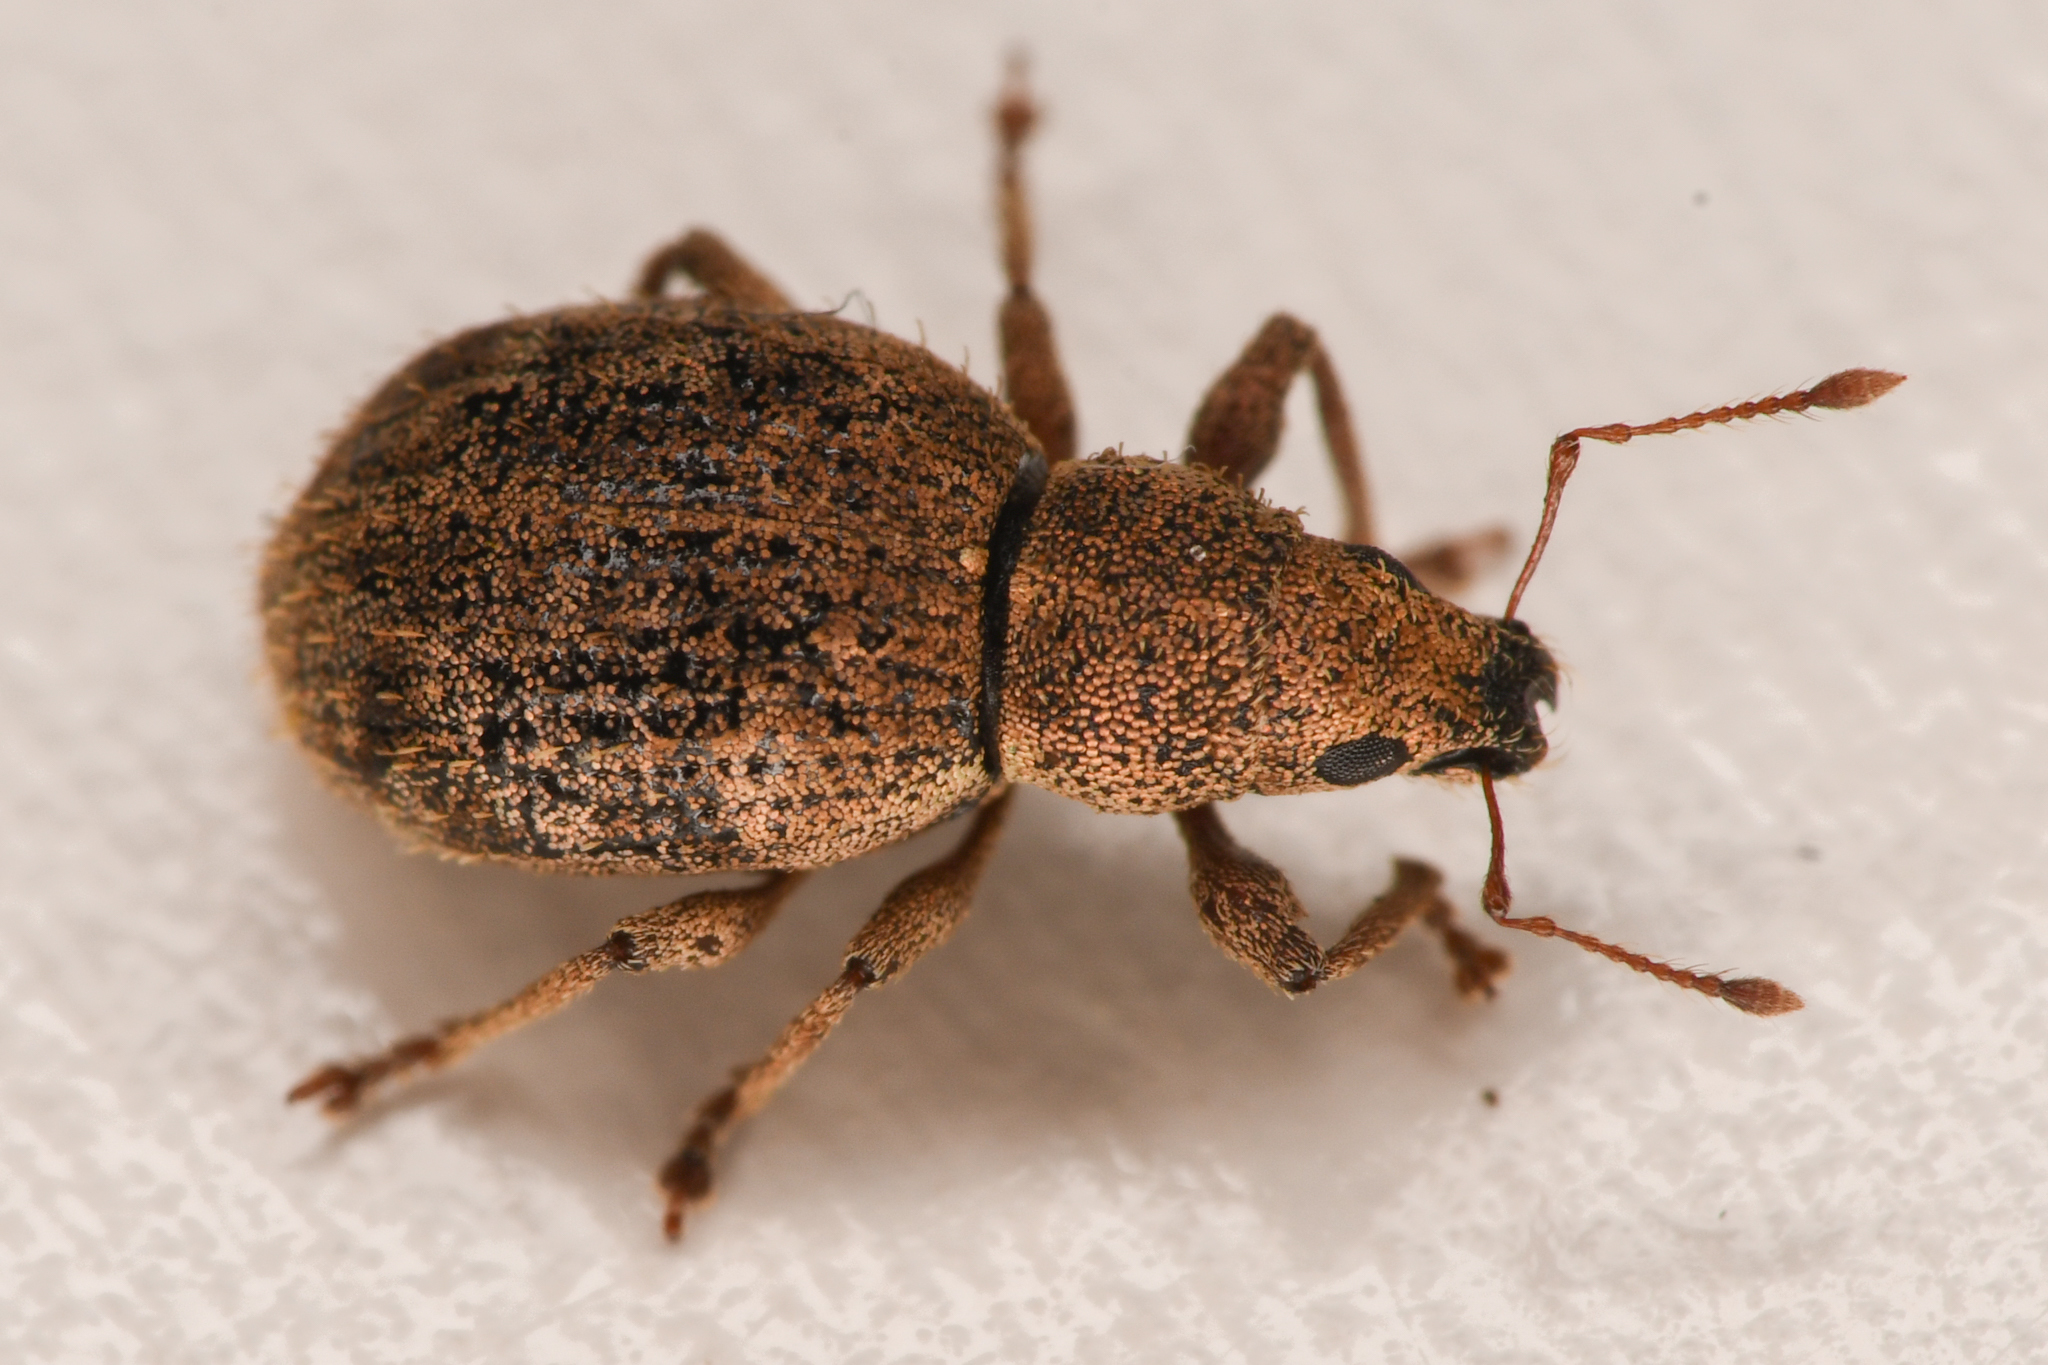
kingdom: Animalia
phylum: Arthropoda
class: Insecta
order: Coleoptera
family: Curculionidae
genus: Sciaphilus
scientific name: Sciaphilus asperatus
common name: Weevil
